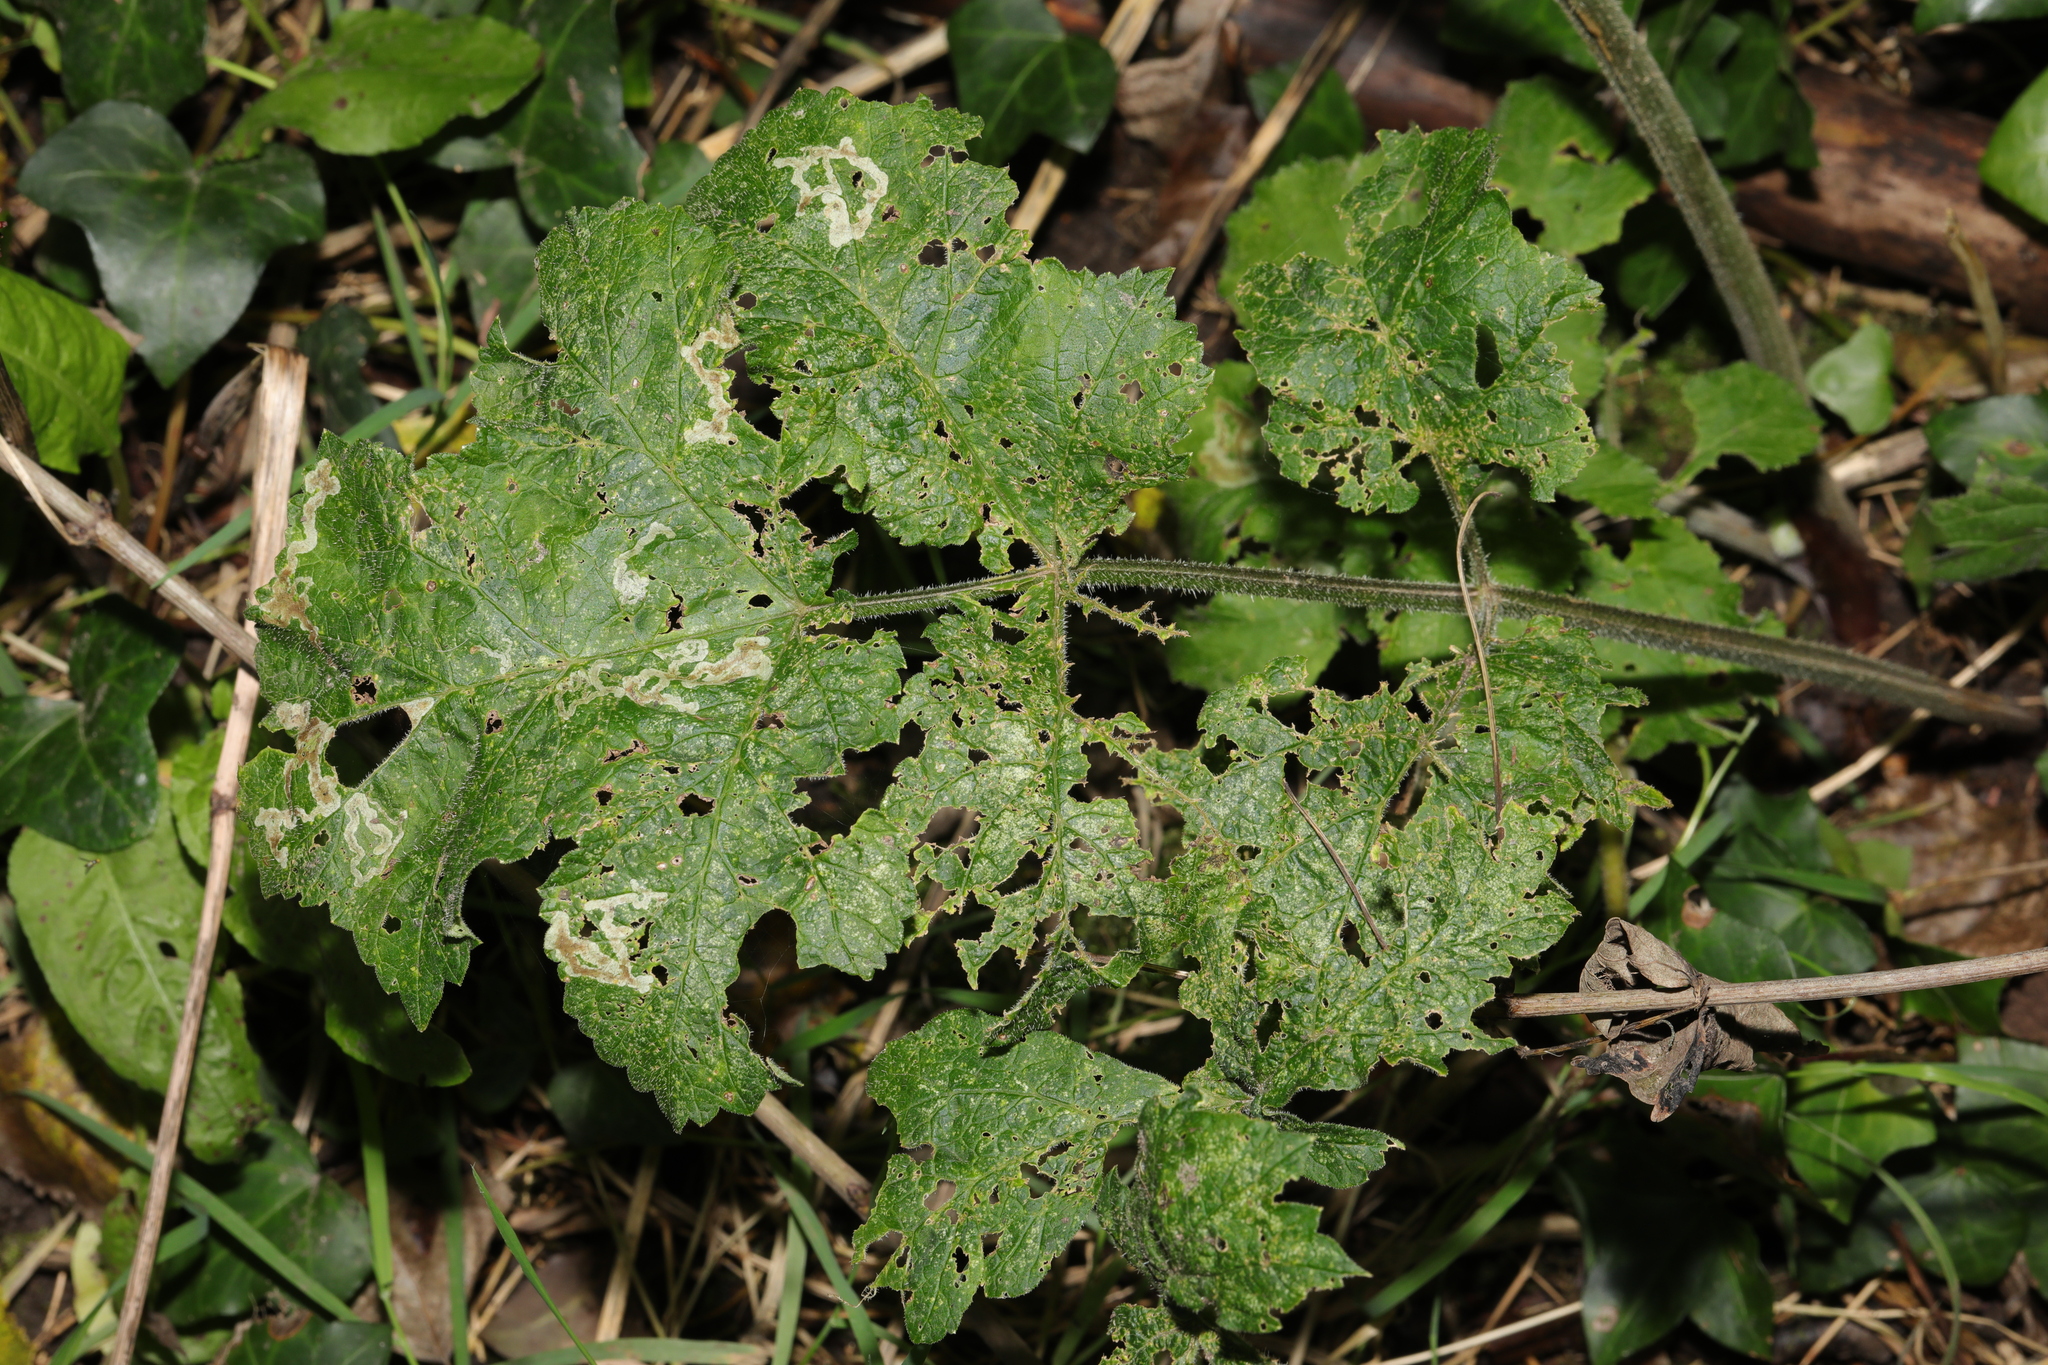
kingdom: Plantae
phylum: Tracheophyta
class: Magnoliopsida
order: Apiales
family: Apiaceae
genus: Heracleum
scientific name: Heracleum sphondylium
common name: Hogweed
